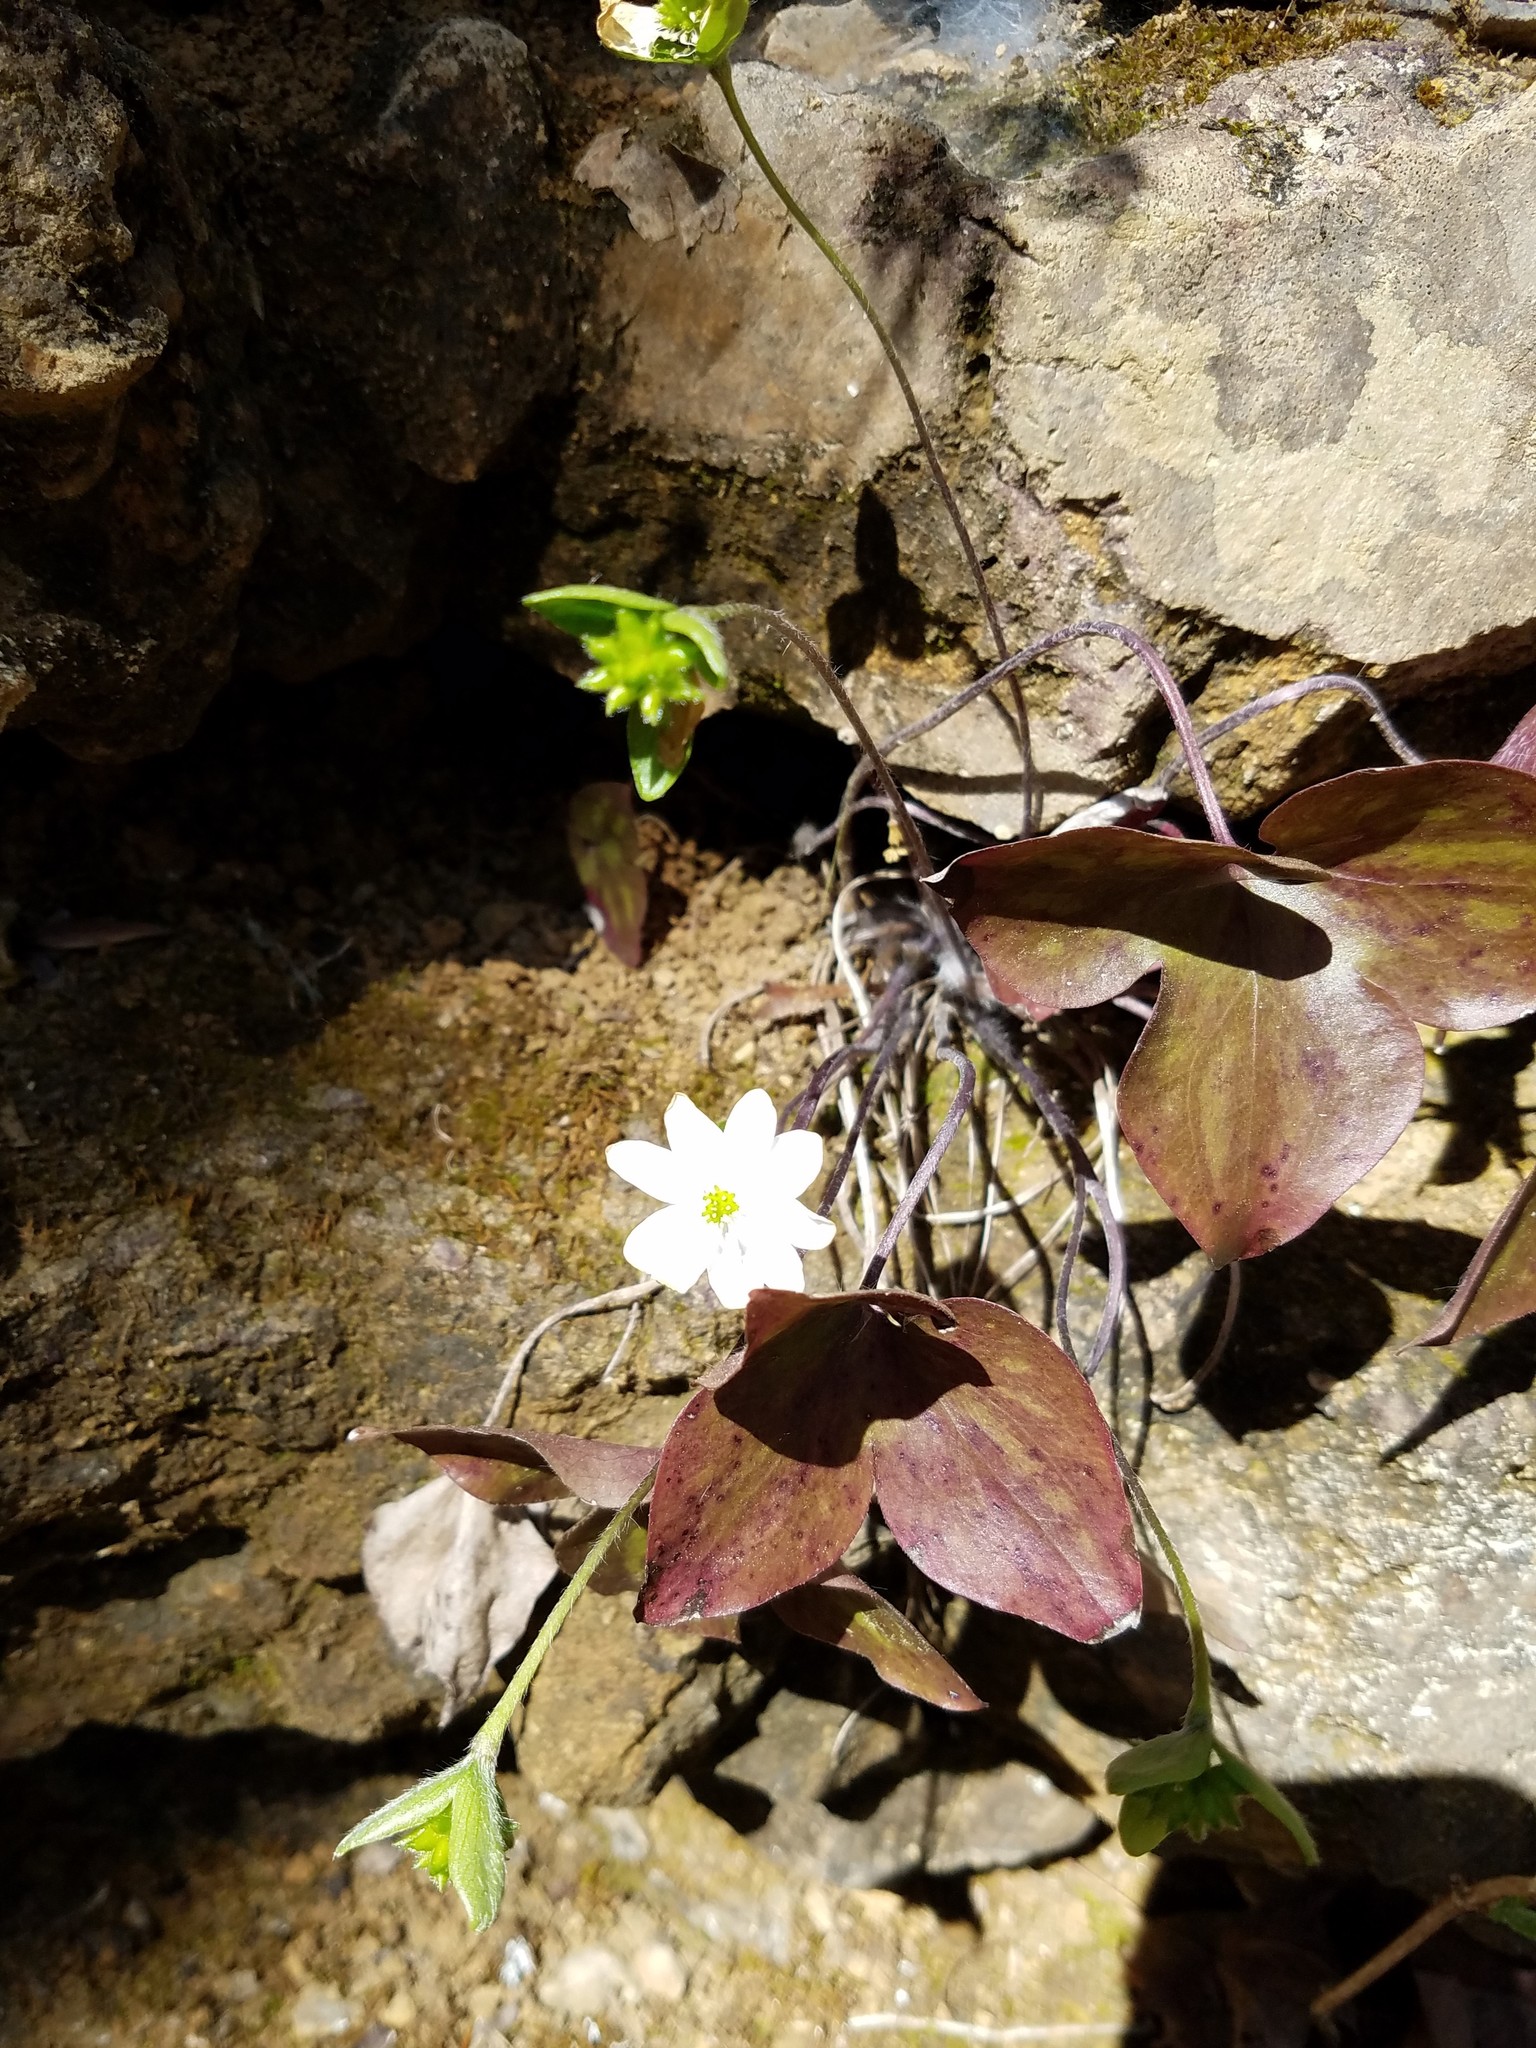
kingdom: Plantae
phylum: Tracheophyta
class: Magnoliopsida
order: Ranunculales
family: Ranunculaceae
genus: Hepatica
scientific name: Hepatica acutiloba
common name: Sharp-lobed hepatica
